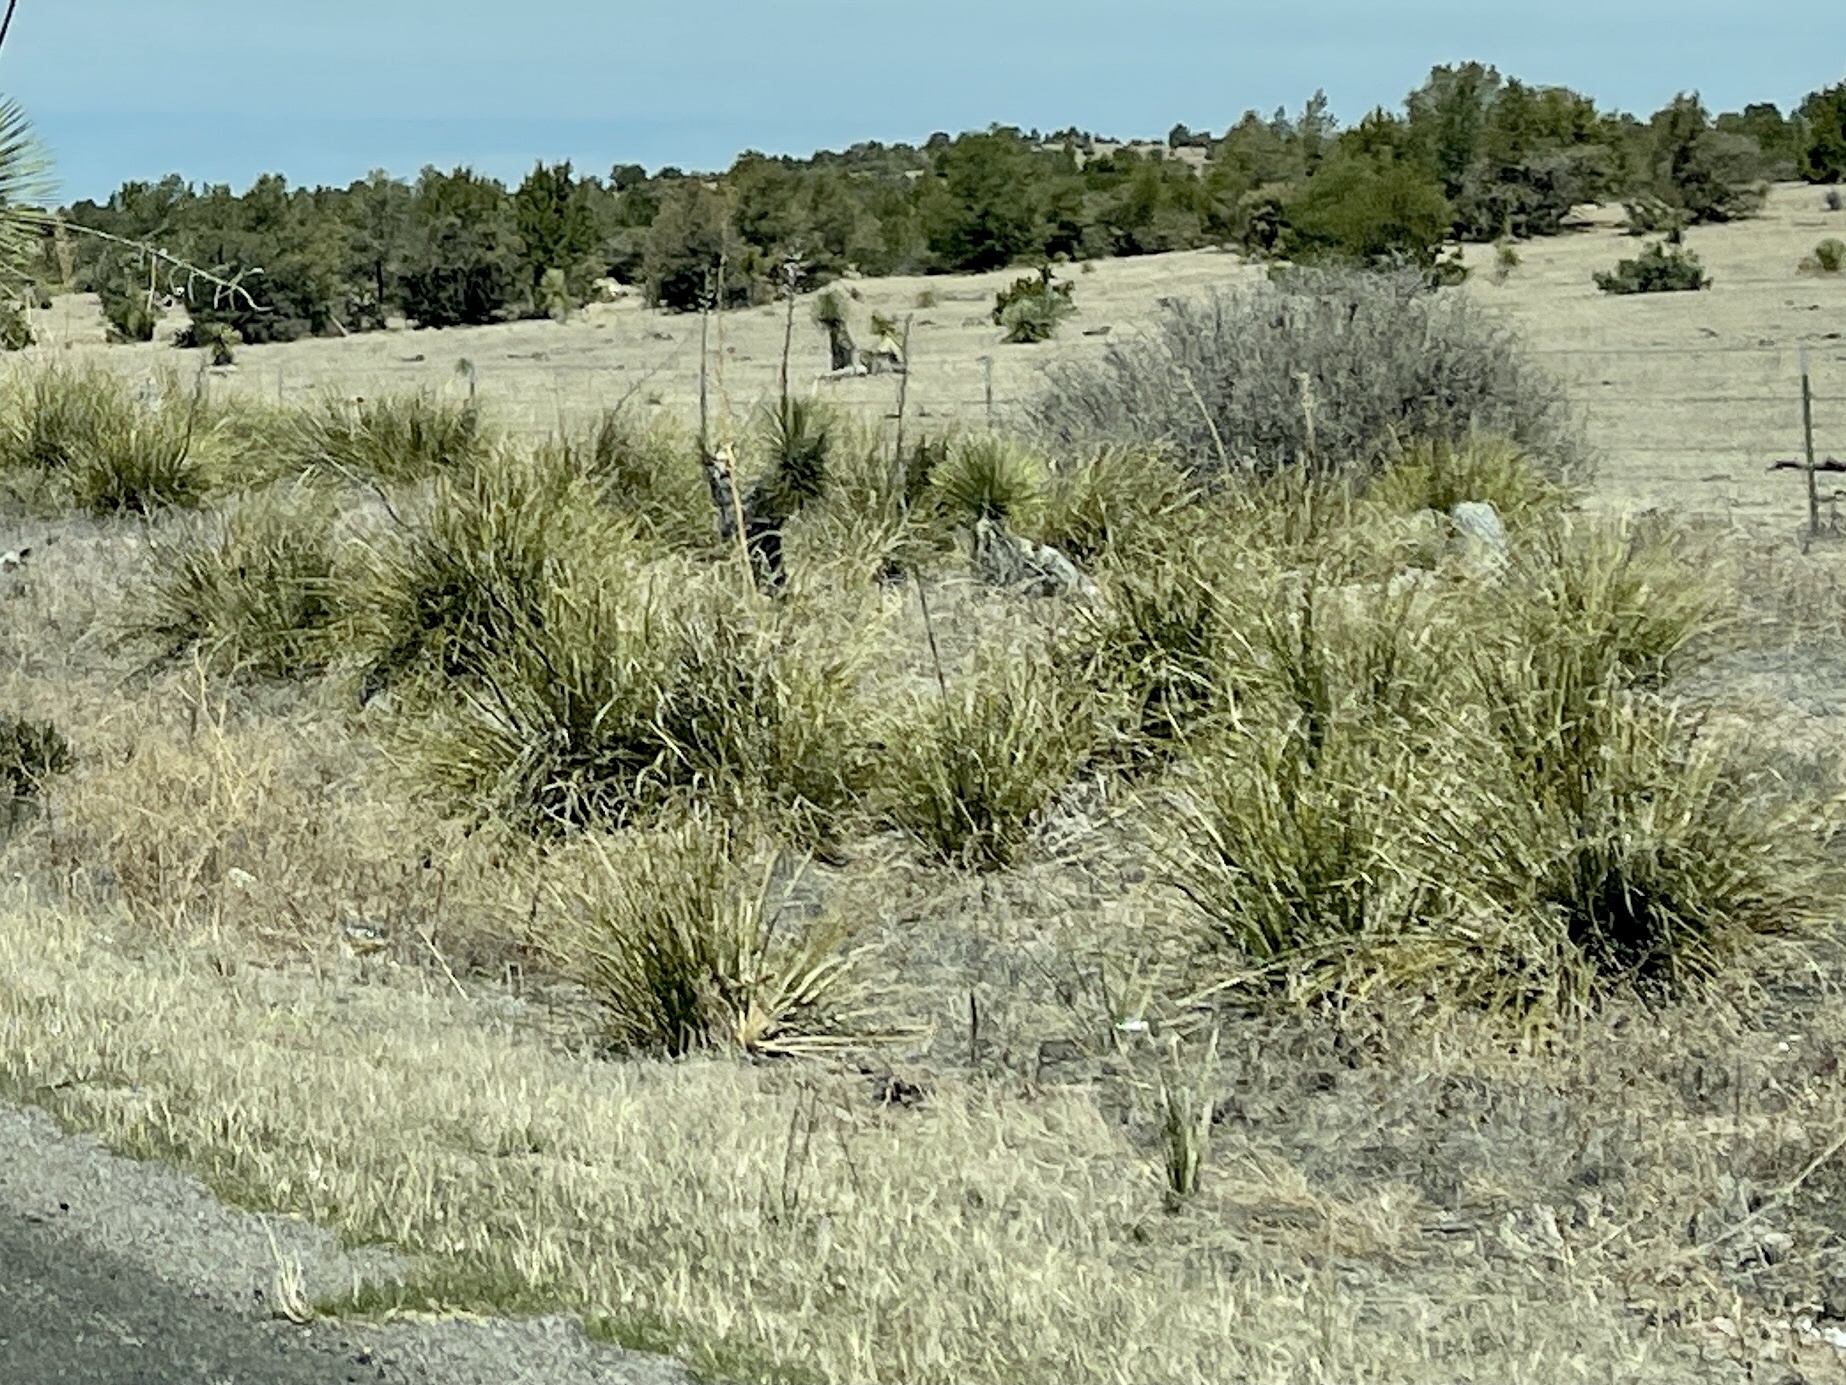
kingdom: Plantae
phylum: Tracheophyta
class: Liliopsida
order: Asparagales
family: Asparagaceae
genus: Nolina
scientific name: Nolina microcarpa
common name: Bear-grass
